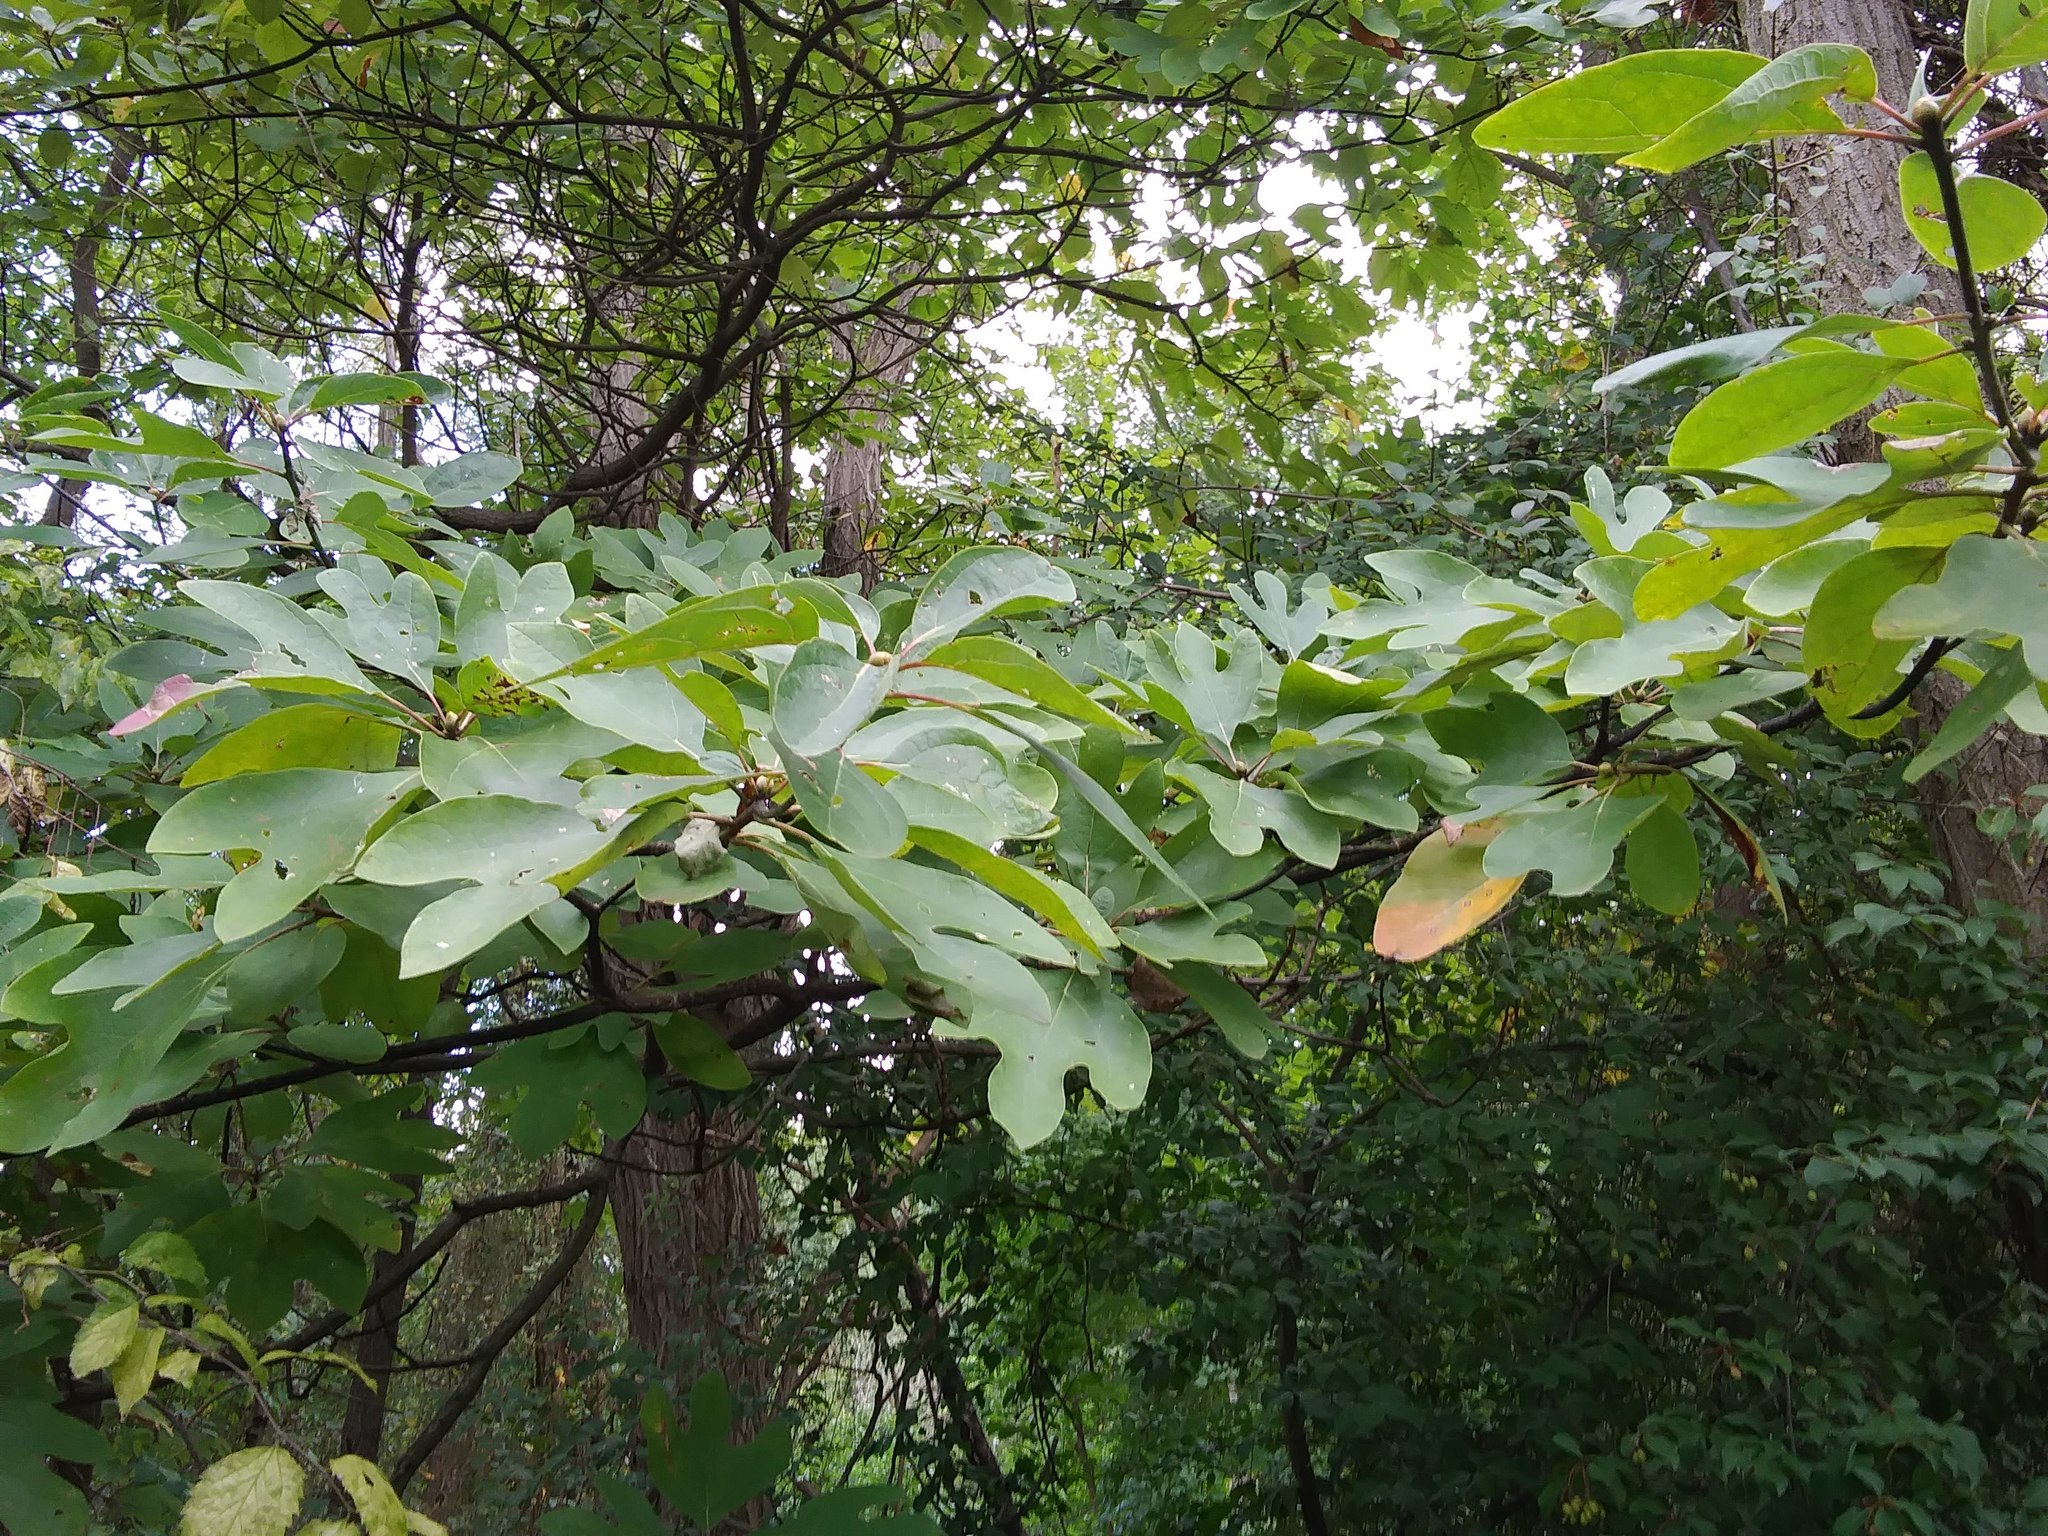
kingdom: Plantae
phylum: Tracheophyta
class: Magnoliopsida
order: Laurales
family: Lauraceae
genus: Sassafras
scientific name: Sassafras albidum
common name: Sassafras
